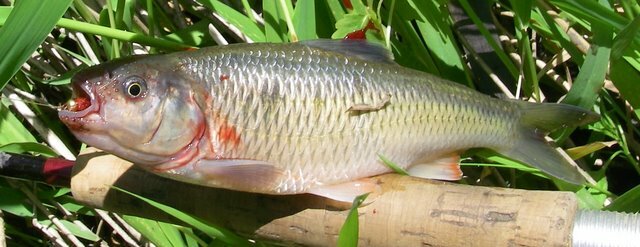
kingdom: Animalia
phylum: Chordata
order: Cypriniformes
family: Cyprinidae
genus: Luxilus
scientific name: Luxilus cornutus
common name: Common shiner
